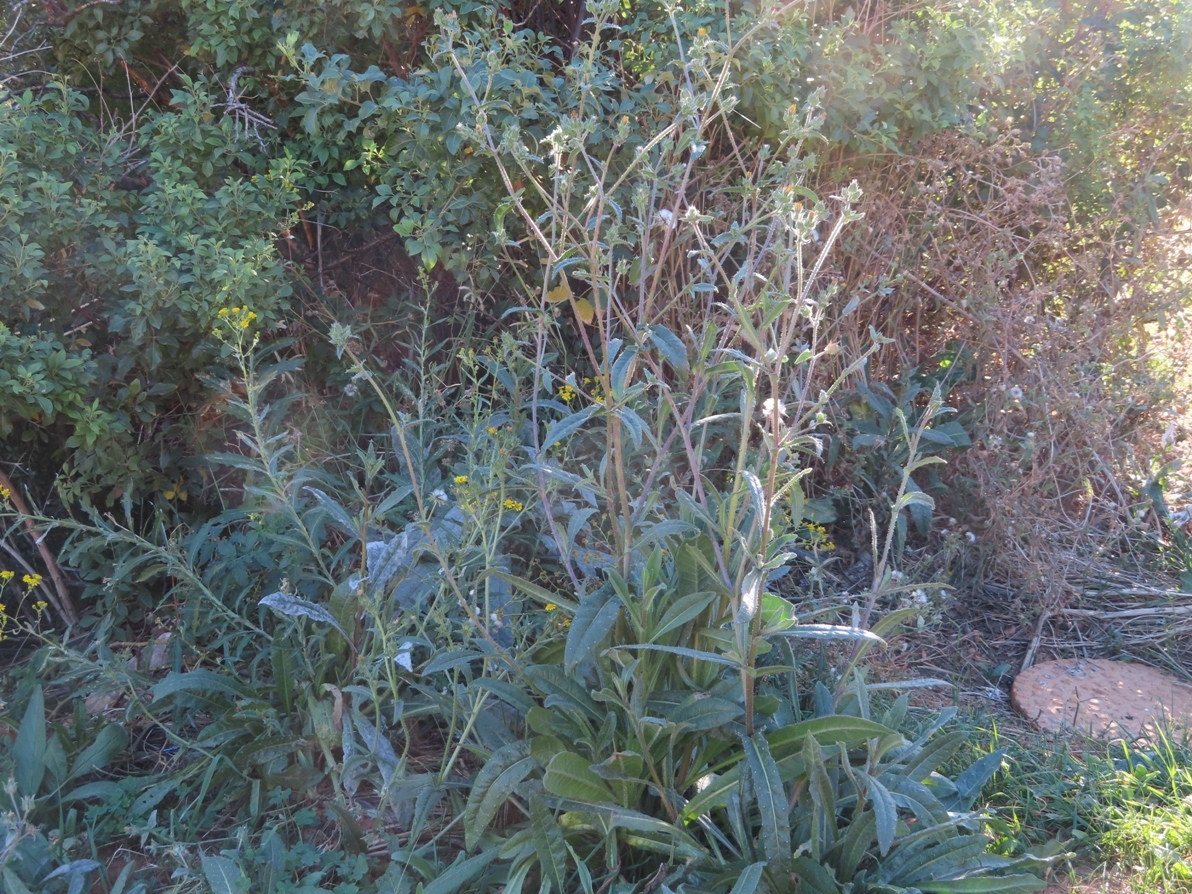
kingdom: Plantae
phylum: Tracheophyta
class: Magnoliopsida
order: Asterales
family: Asteraceae
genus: Helminthotheca
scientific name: Helminthotheca echioides
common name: Ox-tongue
